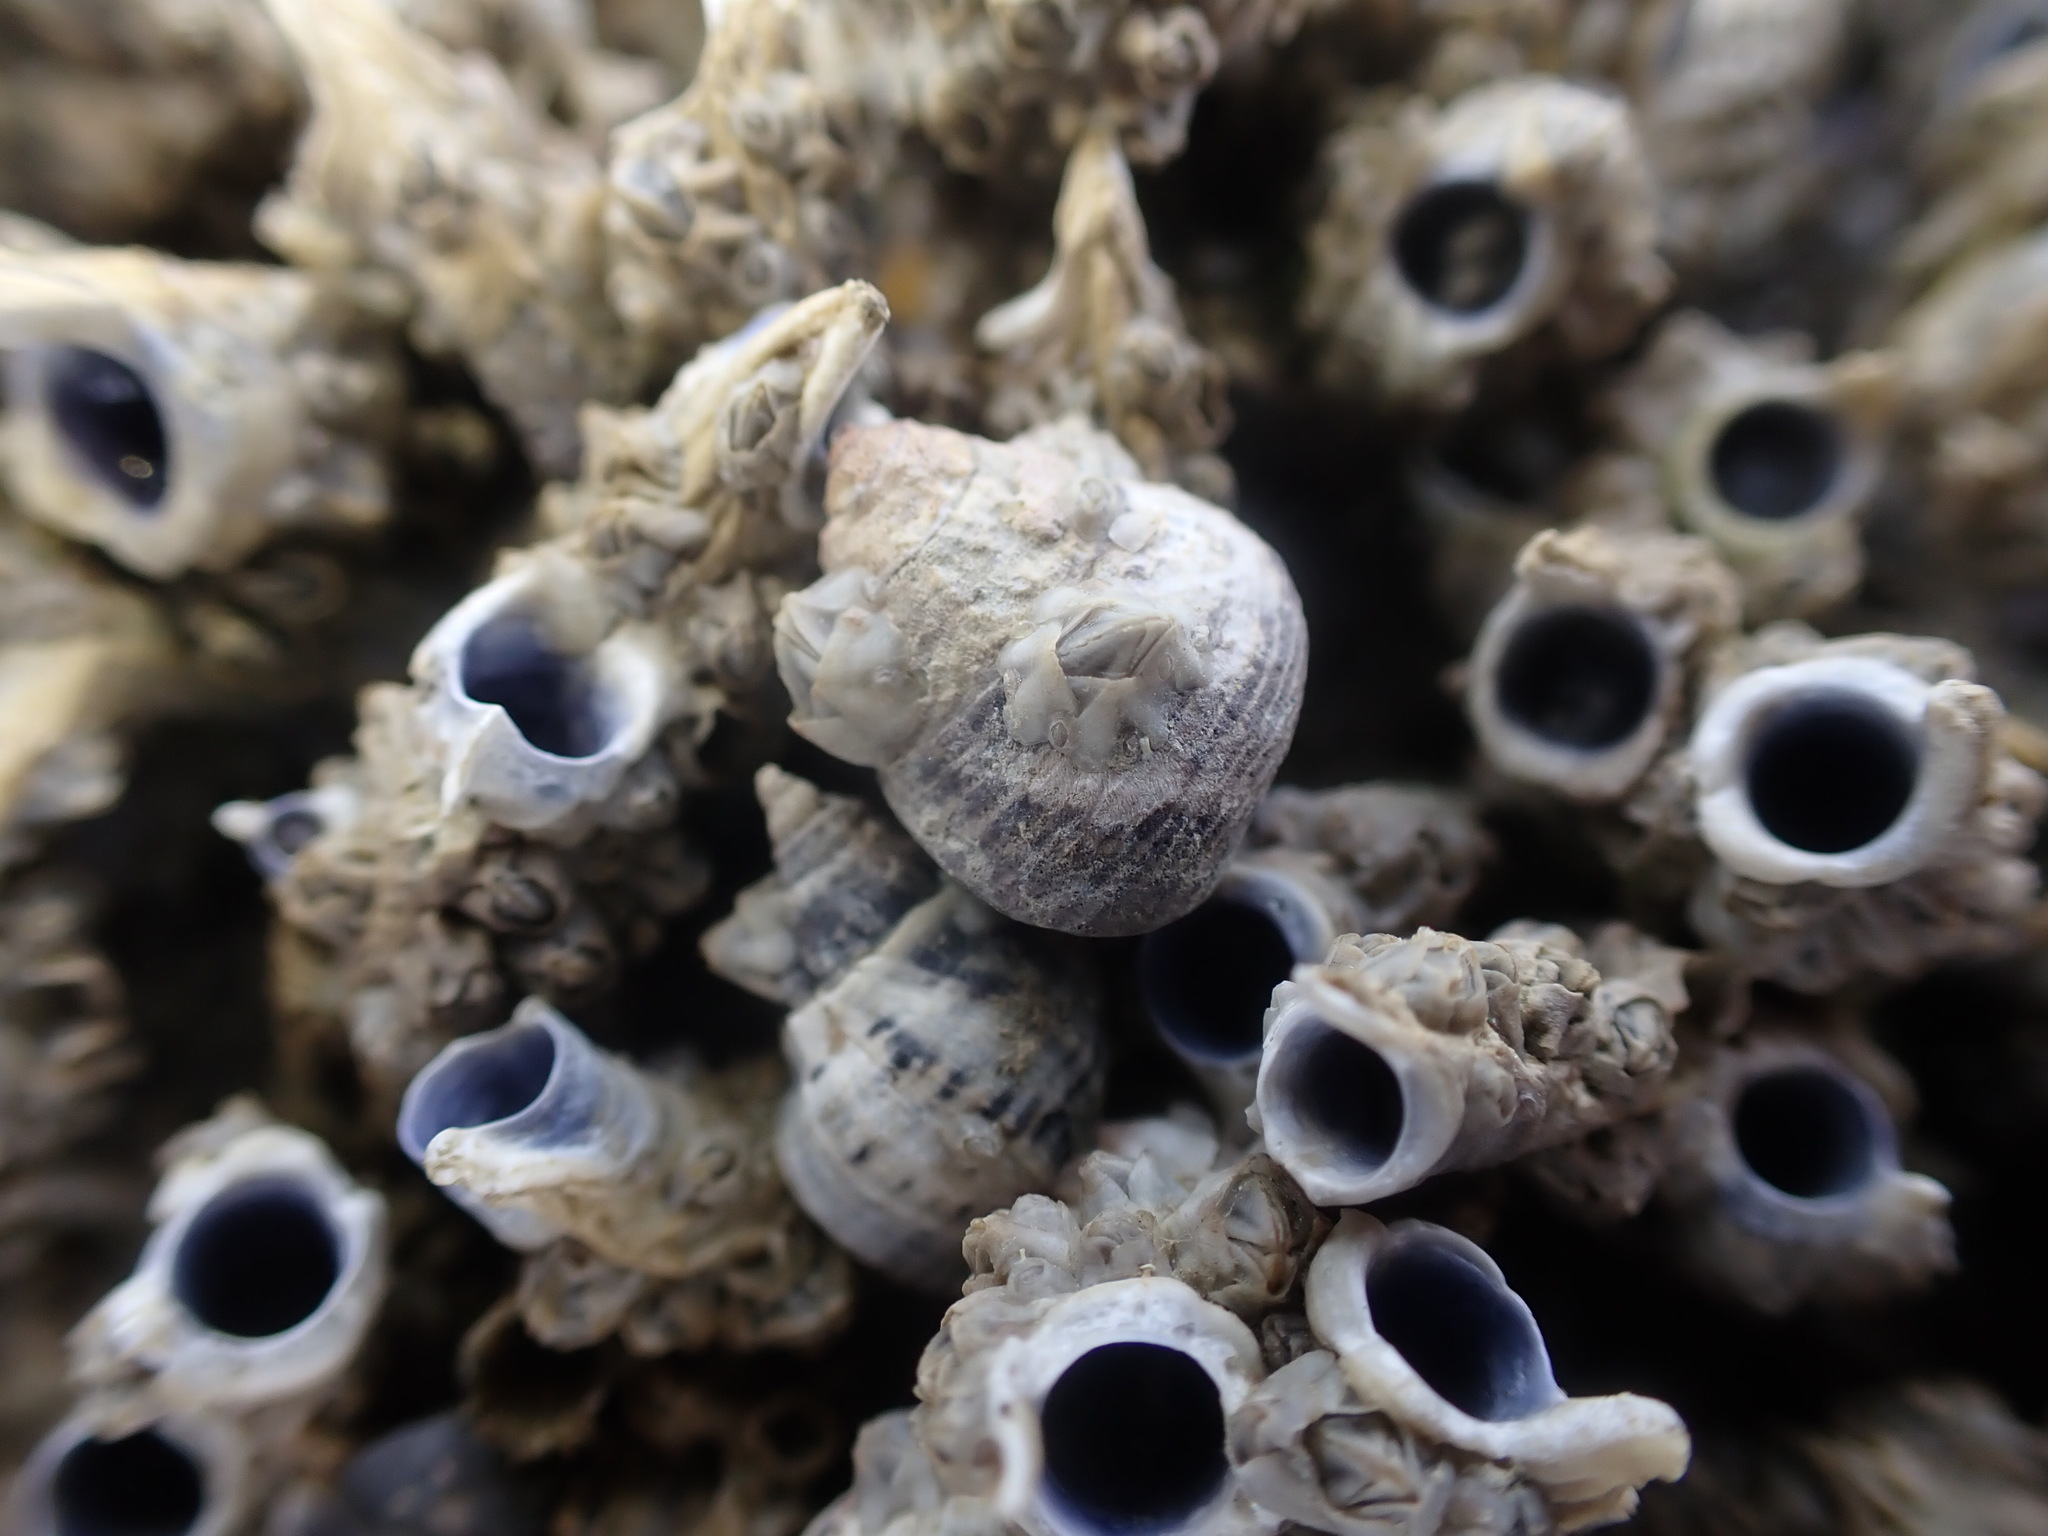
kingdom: Animalia
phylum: Mollusca
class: Gastropoda
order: Trochida
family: Trochidae
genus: Micrelenchus
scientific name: Micrelenchus huttonii
